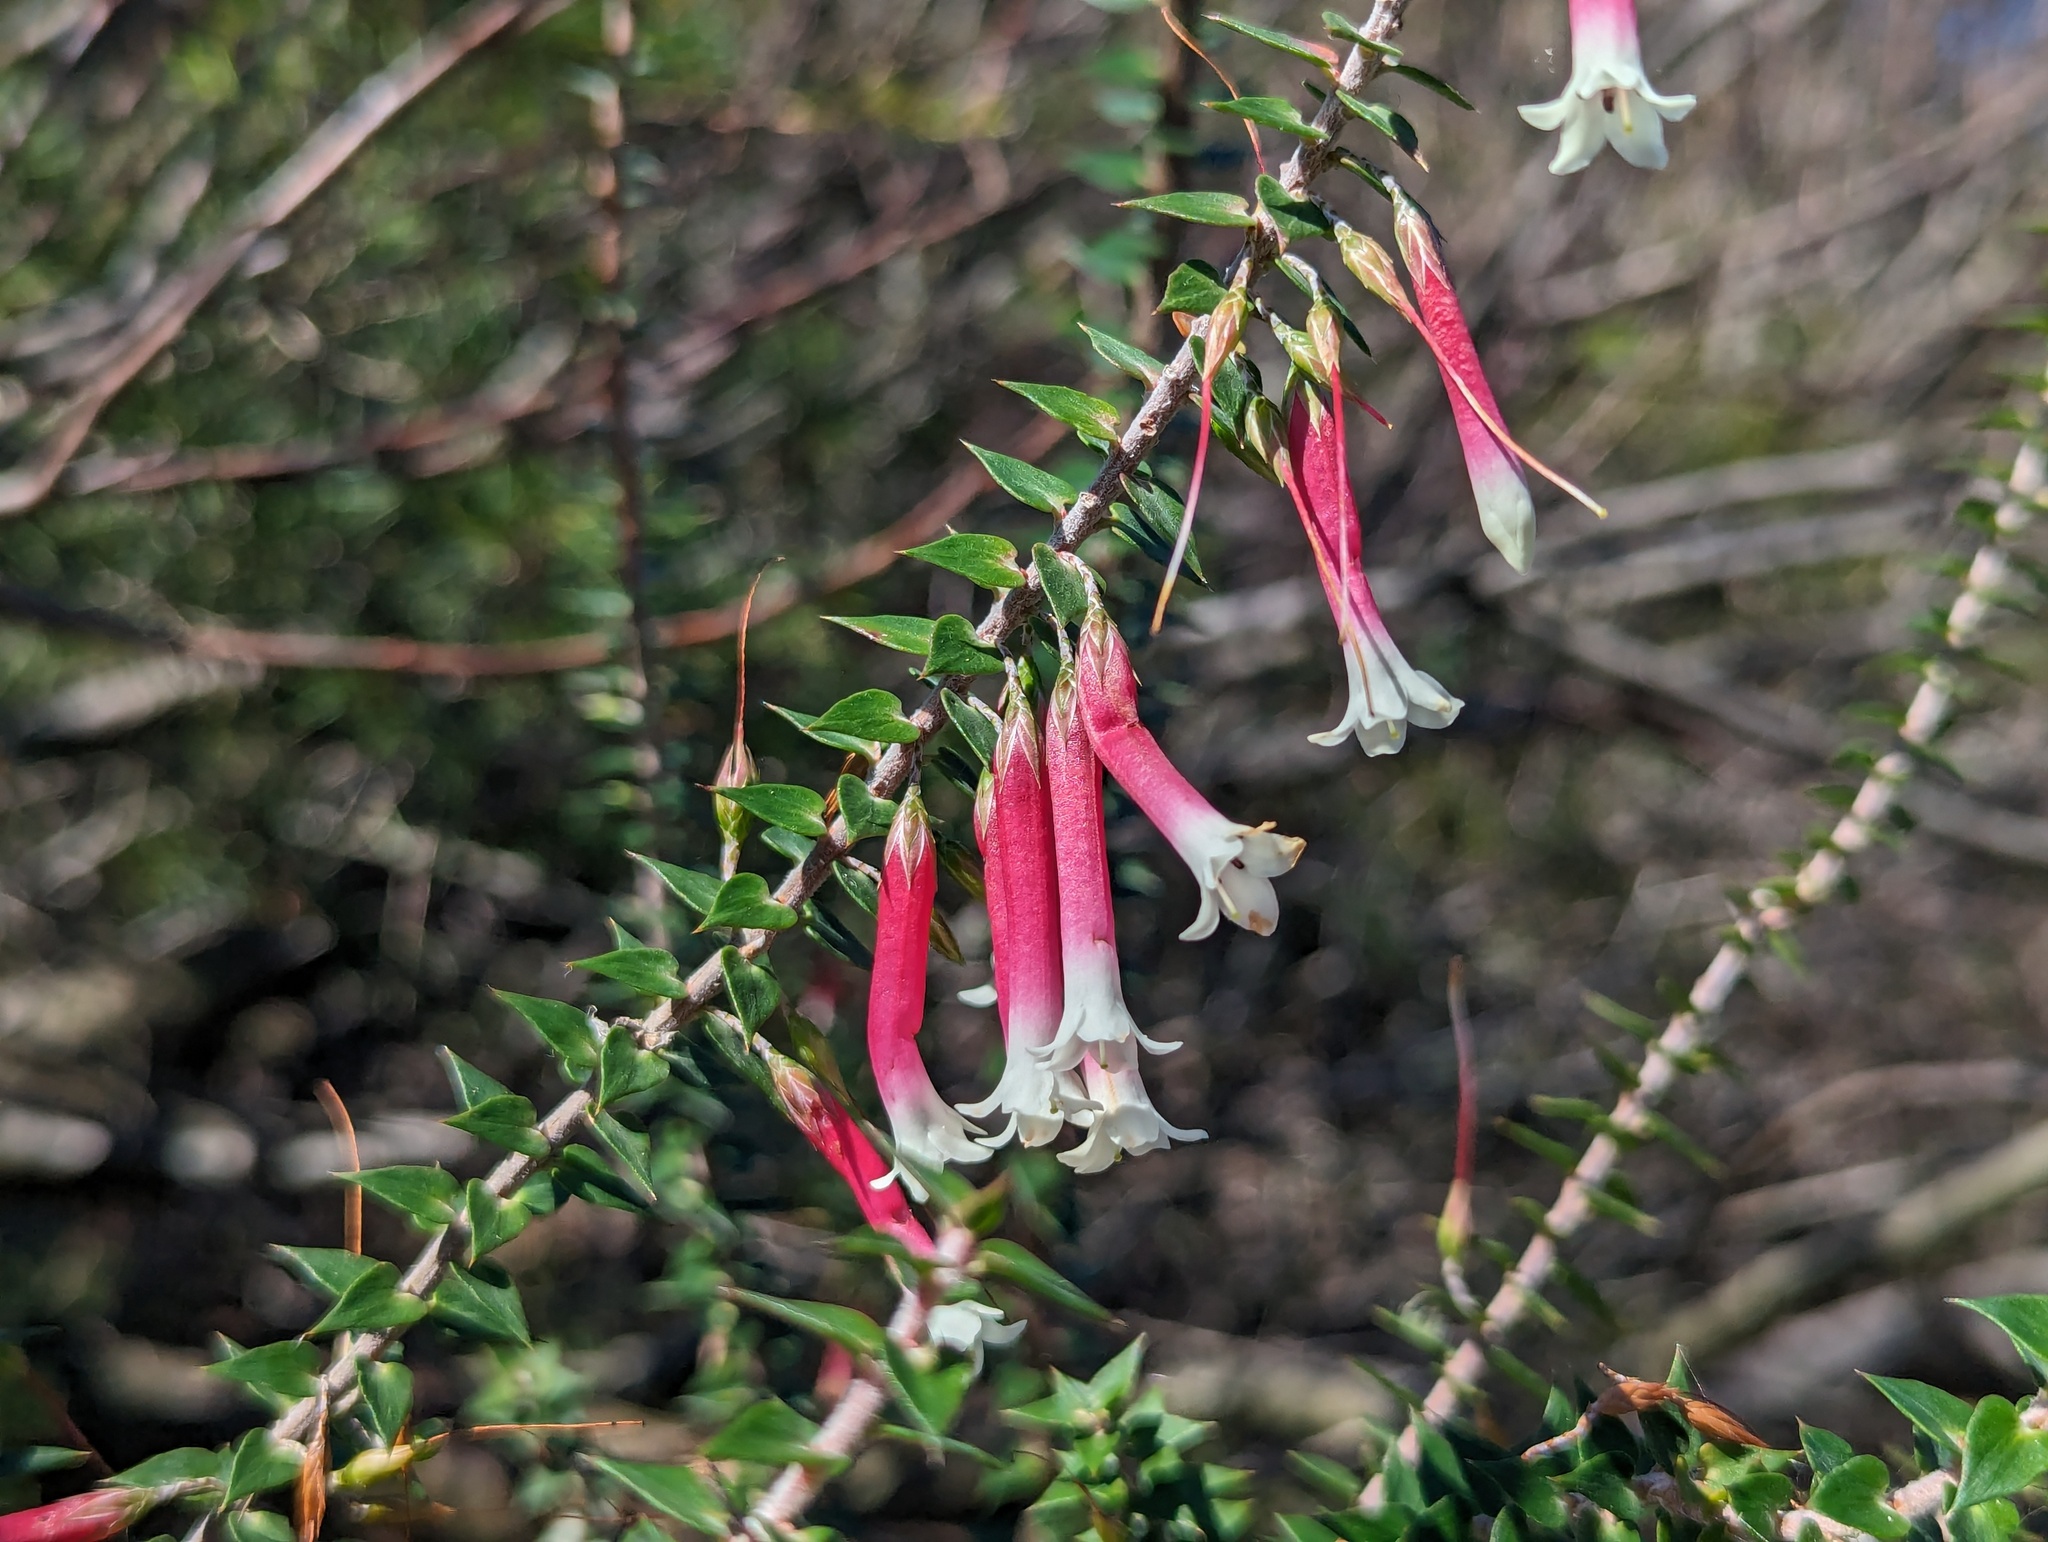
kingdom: Plantae
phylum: Tracheophyta
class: Magnoliopsida
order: Ericales
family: Ericaceae
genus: Epacris
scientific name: Epacris longiflora
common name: Fuchsia-heath
